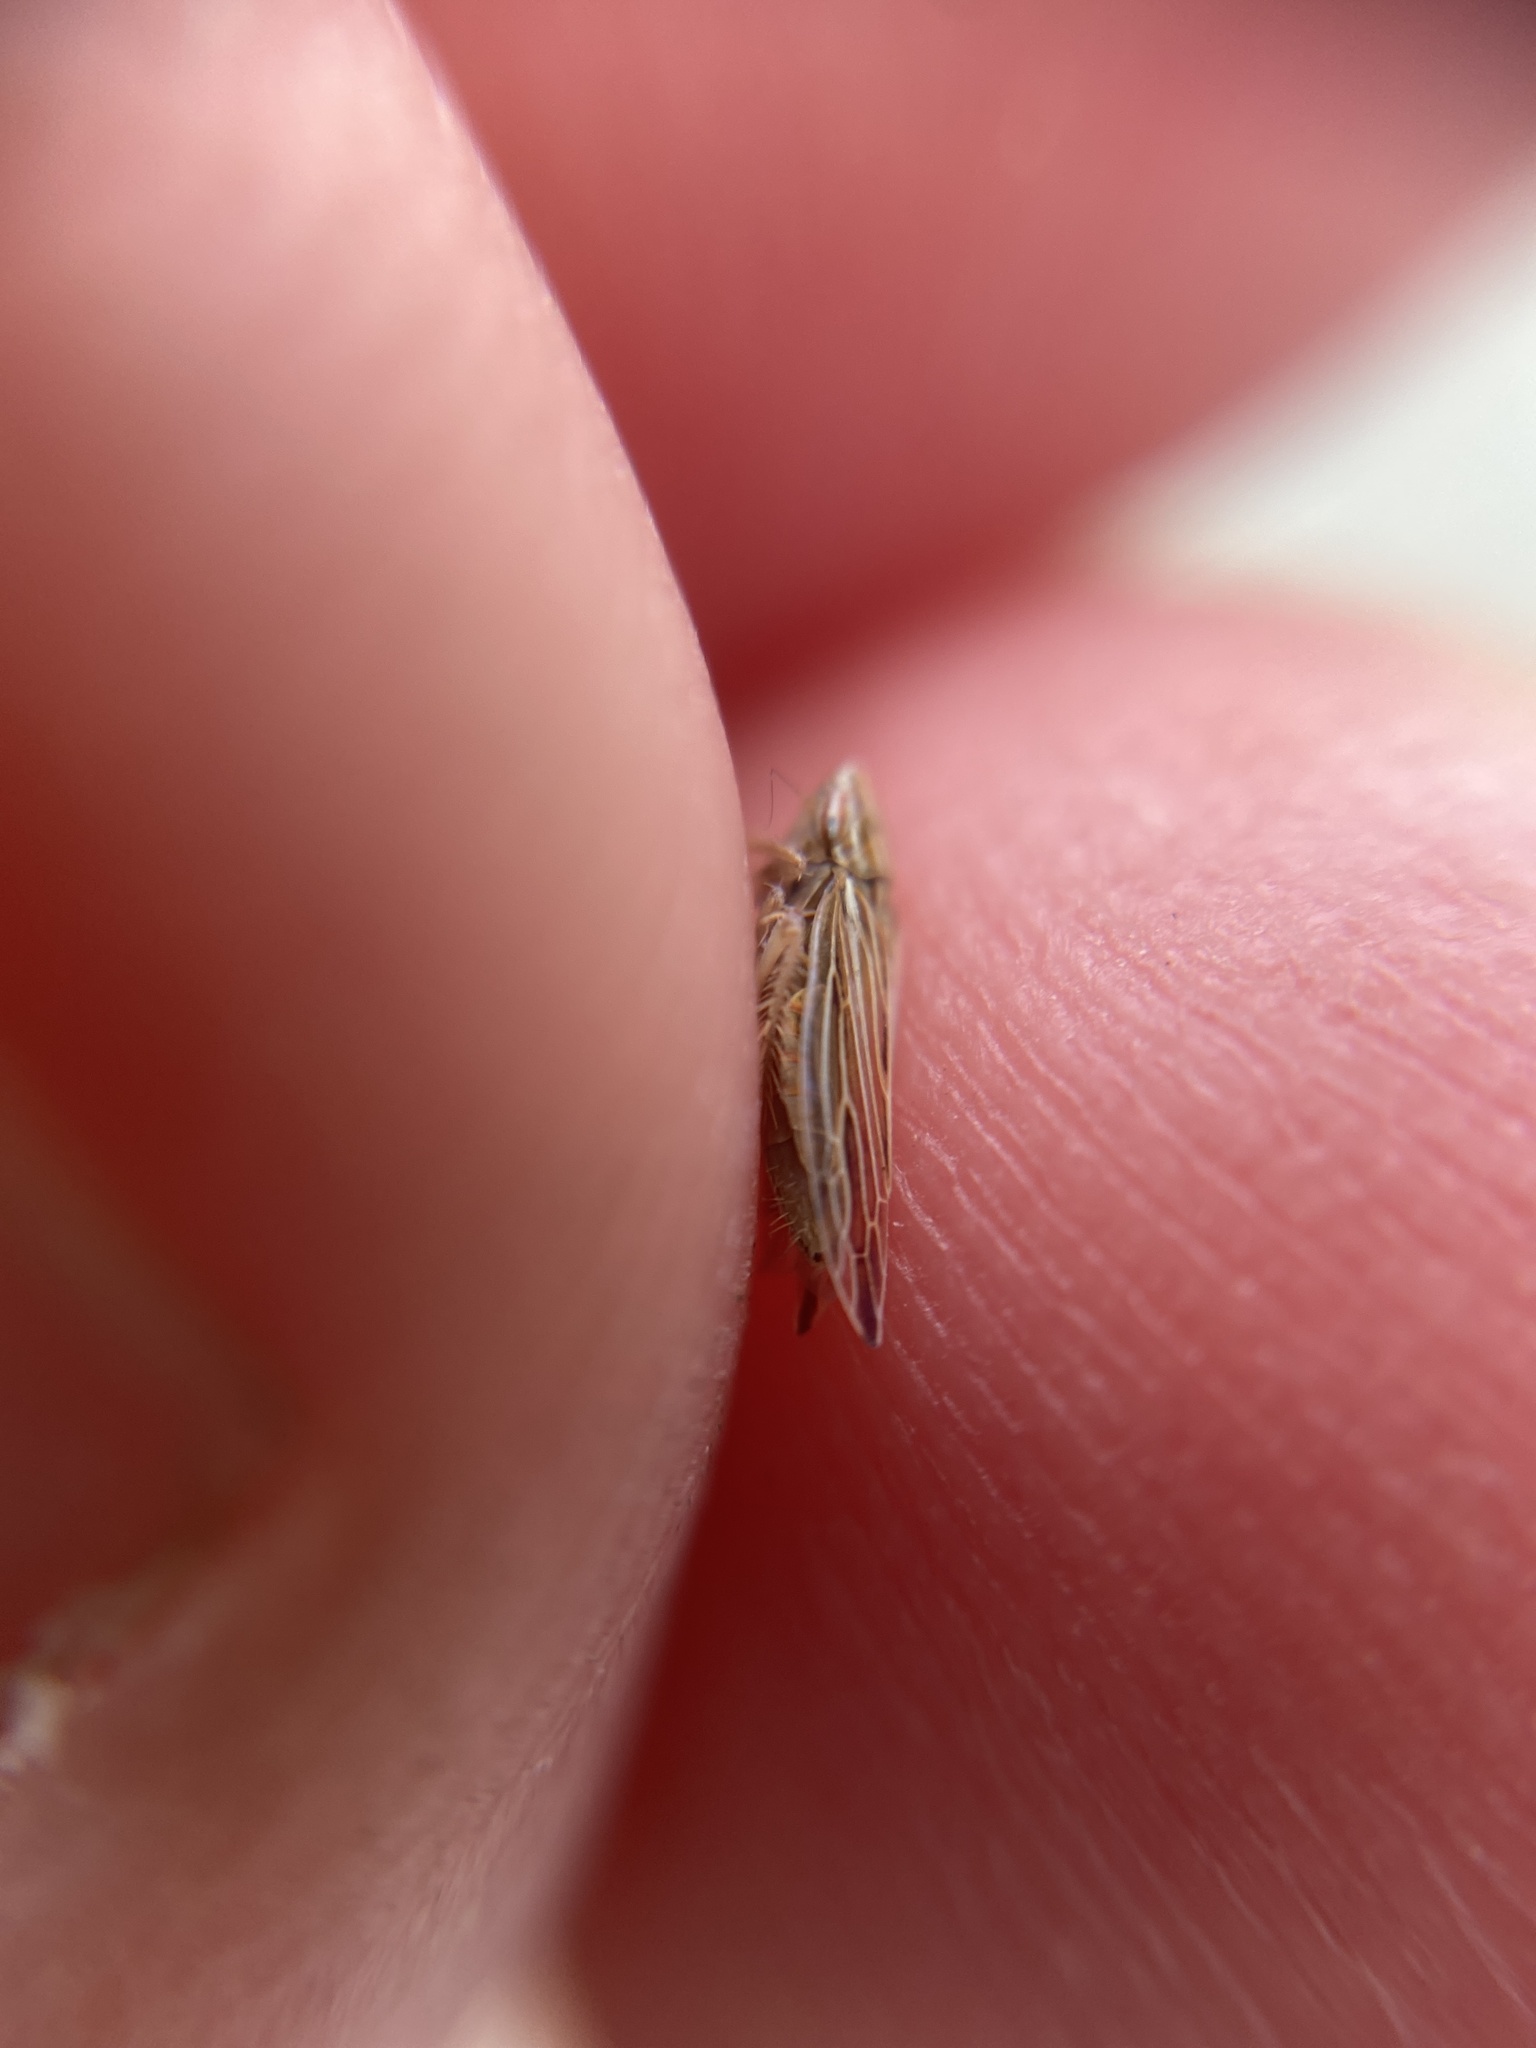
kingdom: Animalia
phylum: Arthropoda
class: Insecta
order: Hemiptera
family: Cicadellidae
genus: Mocydia
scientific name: Mocydia crocea
